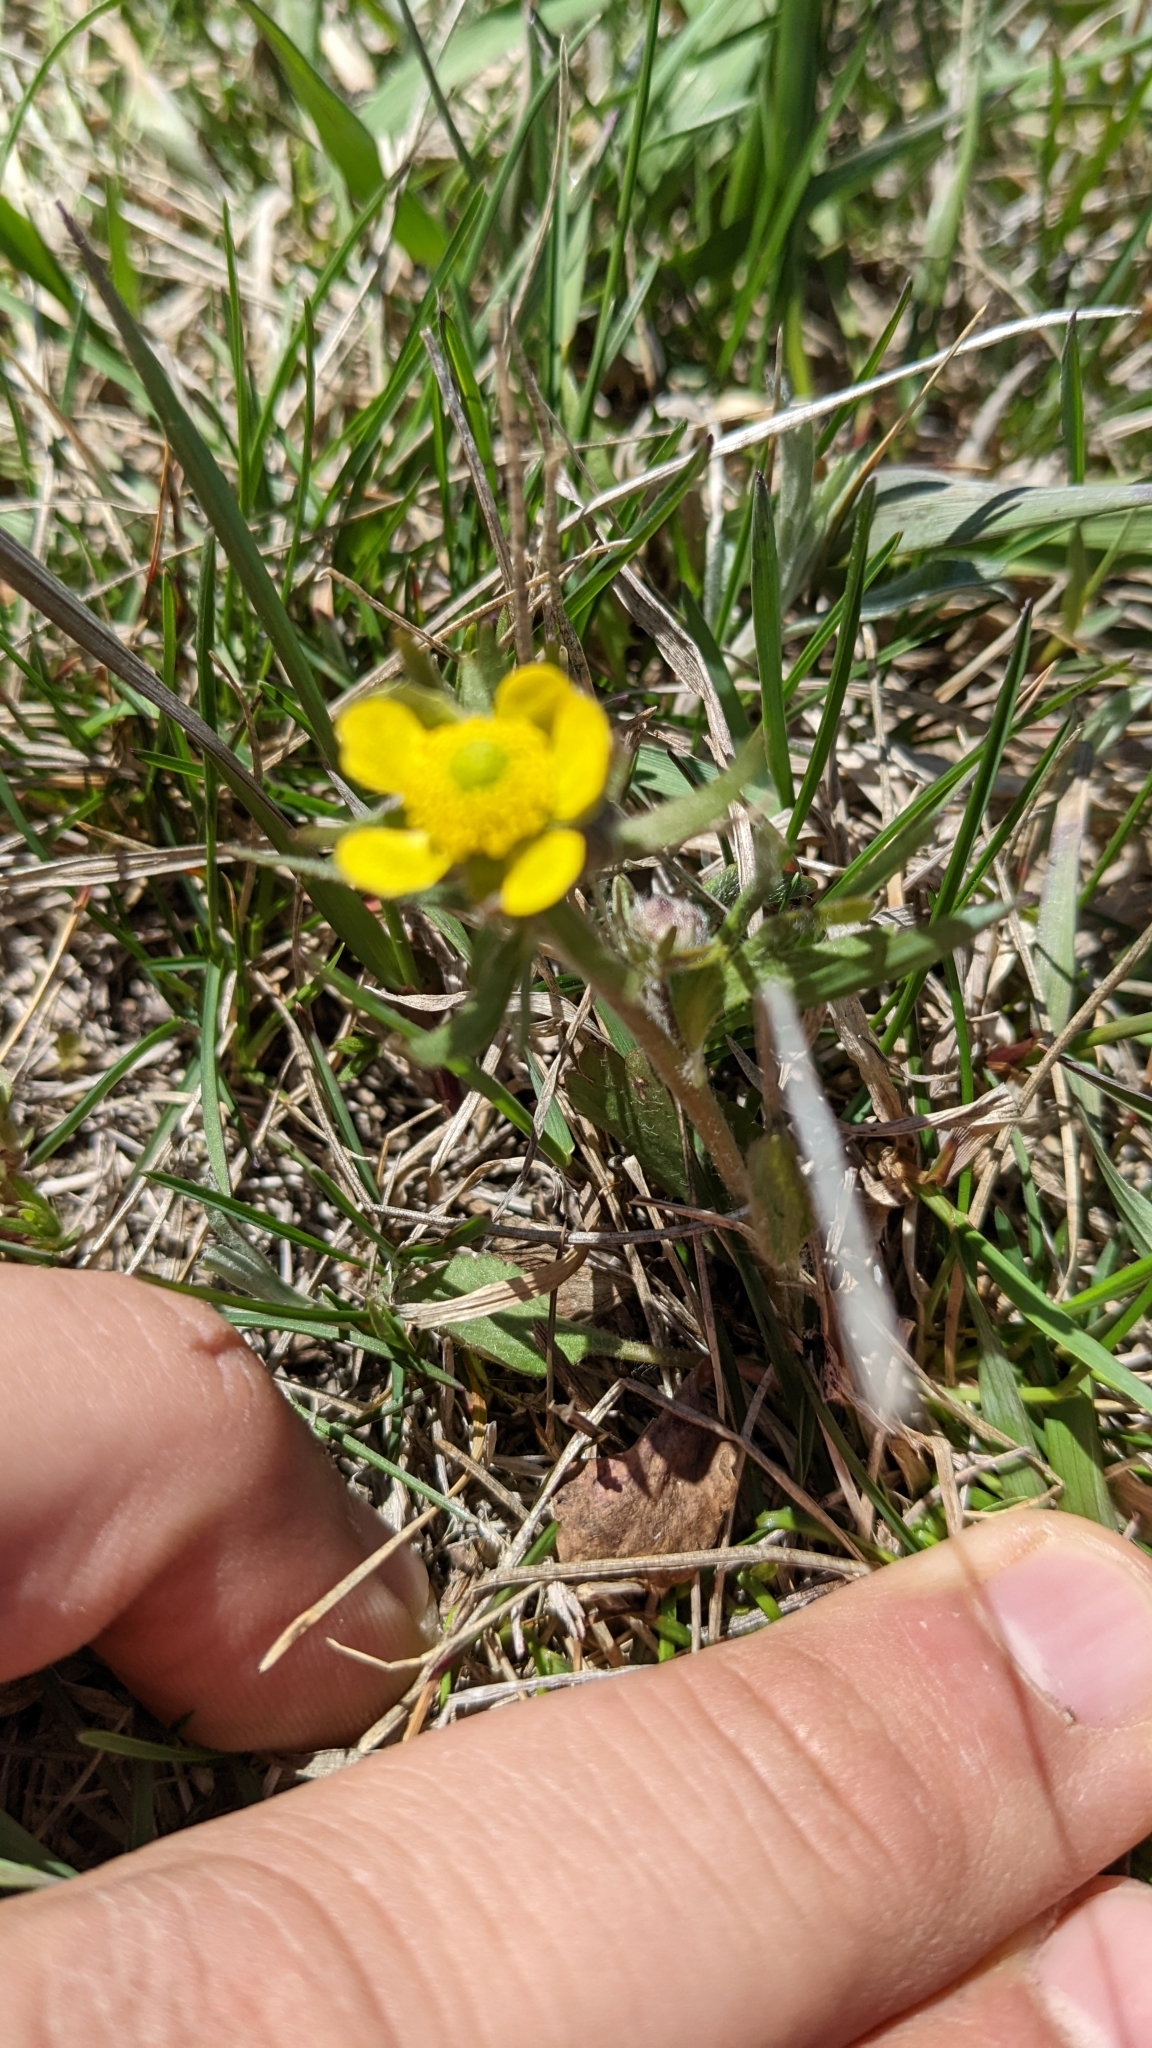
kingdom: Plantae
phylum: Tracheophyta
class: Magnoliopsida
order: Ranunculales
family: Ranunculaceae
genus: Ranunculus
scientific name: Ranunculus rhomboideus
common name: Prairie buttercup
